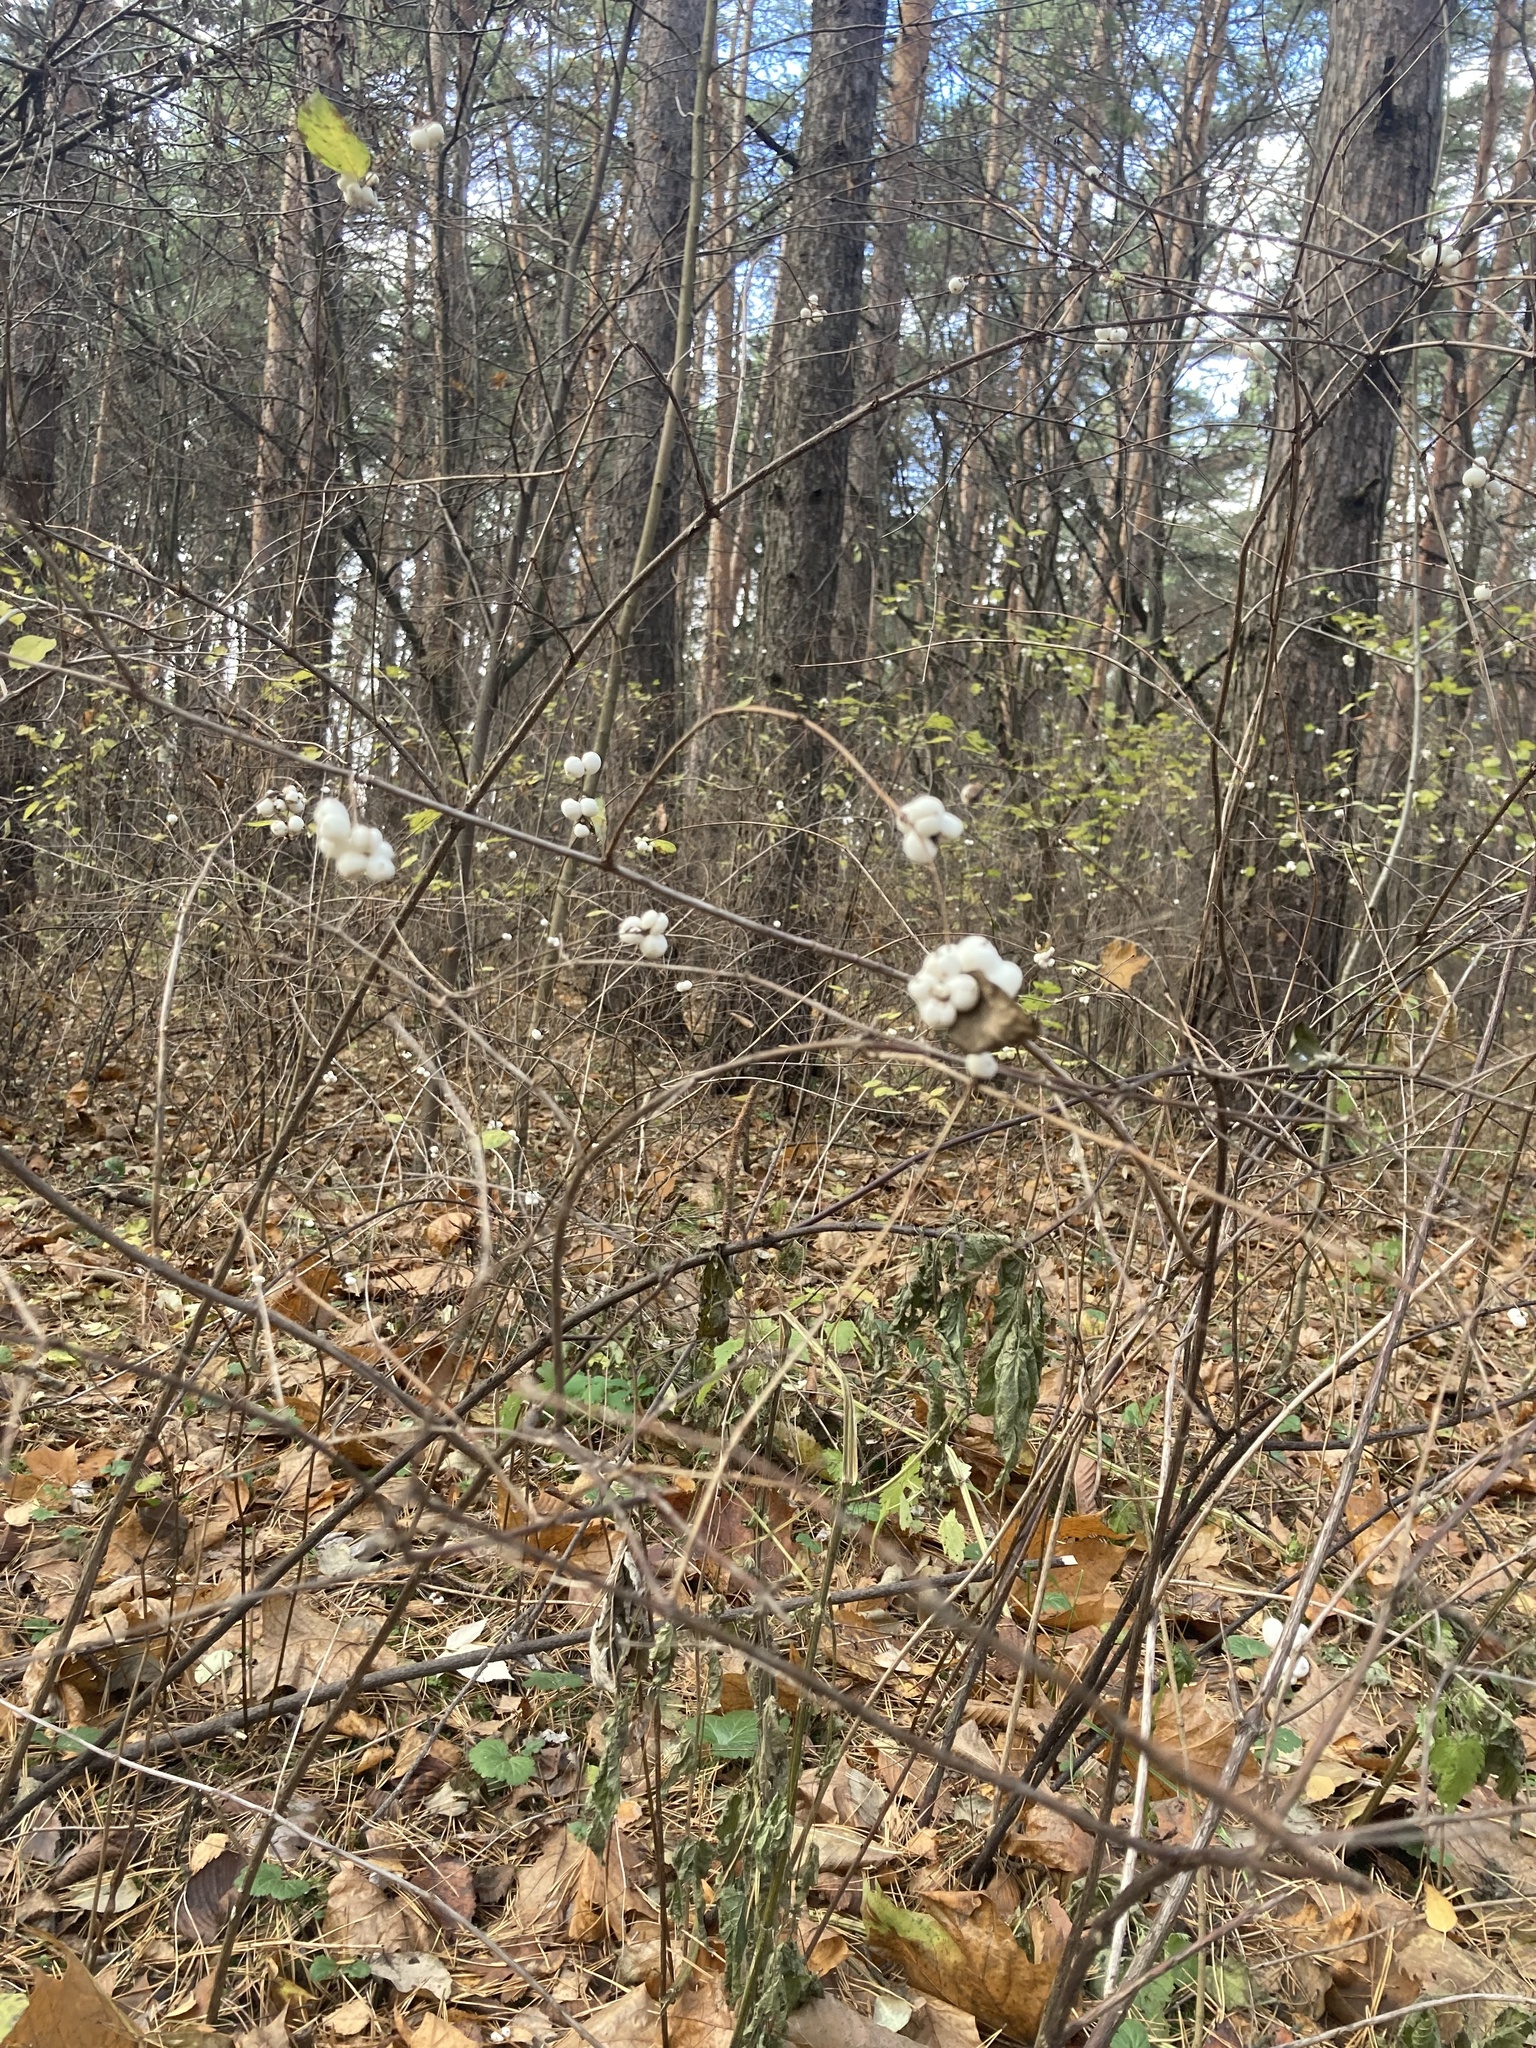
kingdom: Plantae
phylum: Tracheophyta
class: Magnoliopsida
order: Dipsacales
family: Caprifoliaceae
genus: Symphoricarpos
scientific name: Symphoricarpos albus
